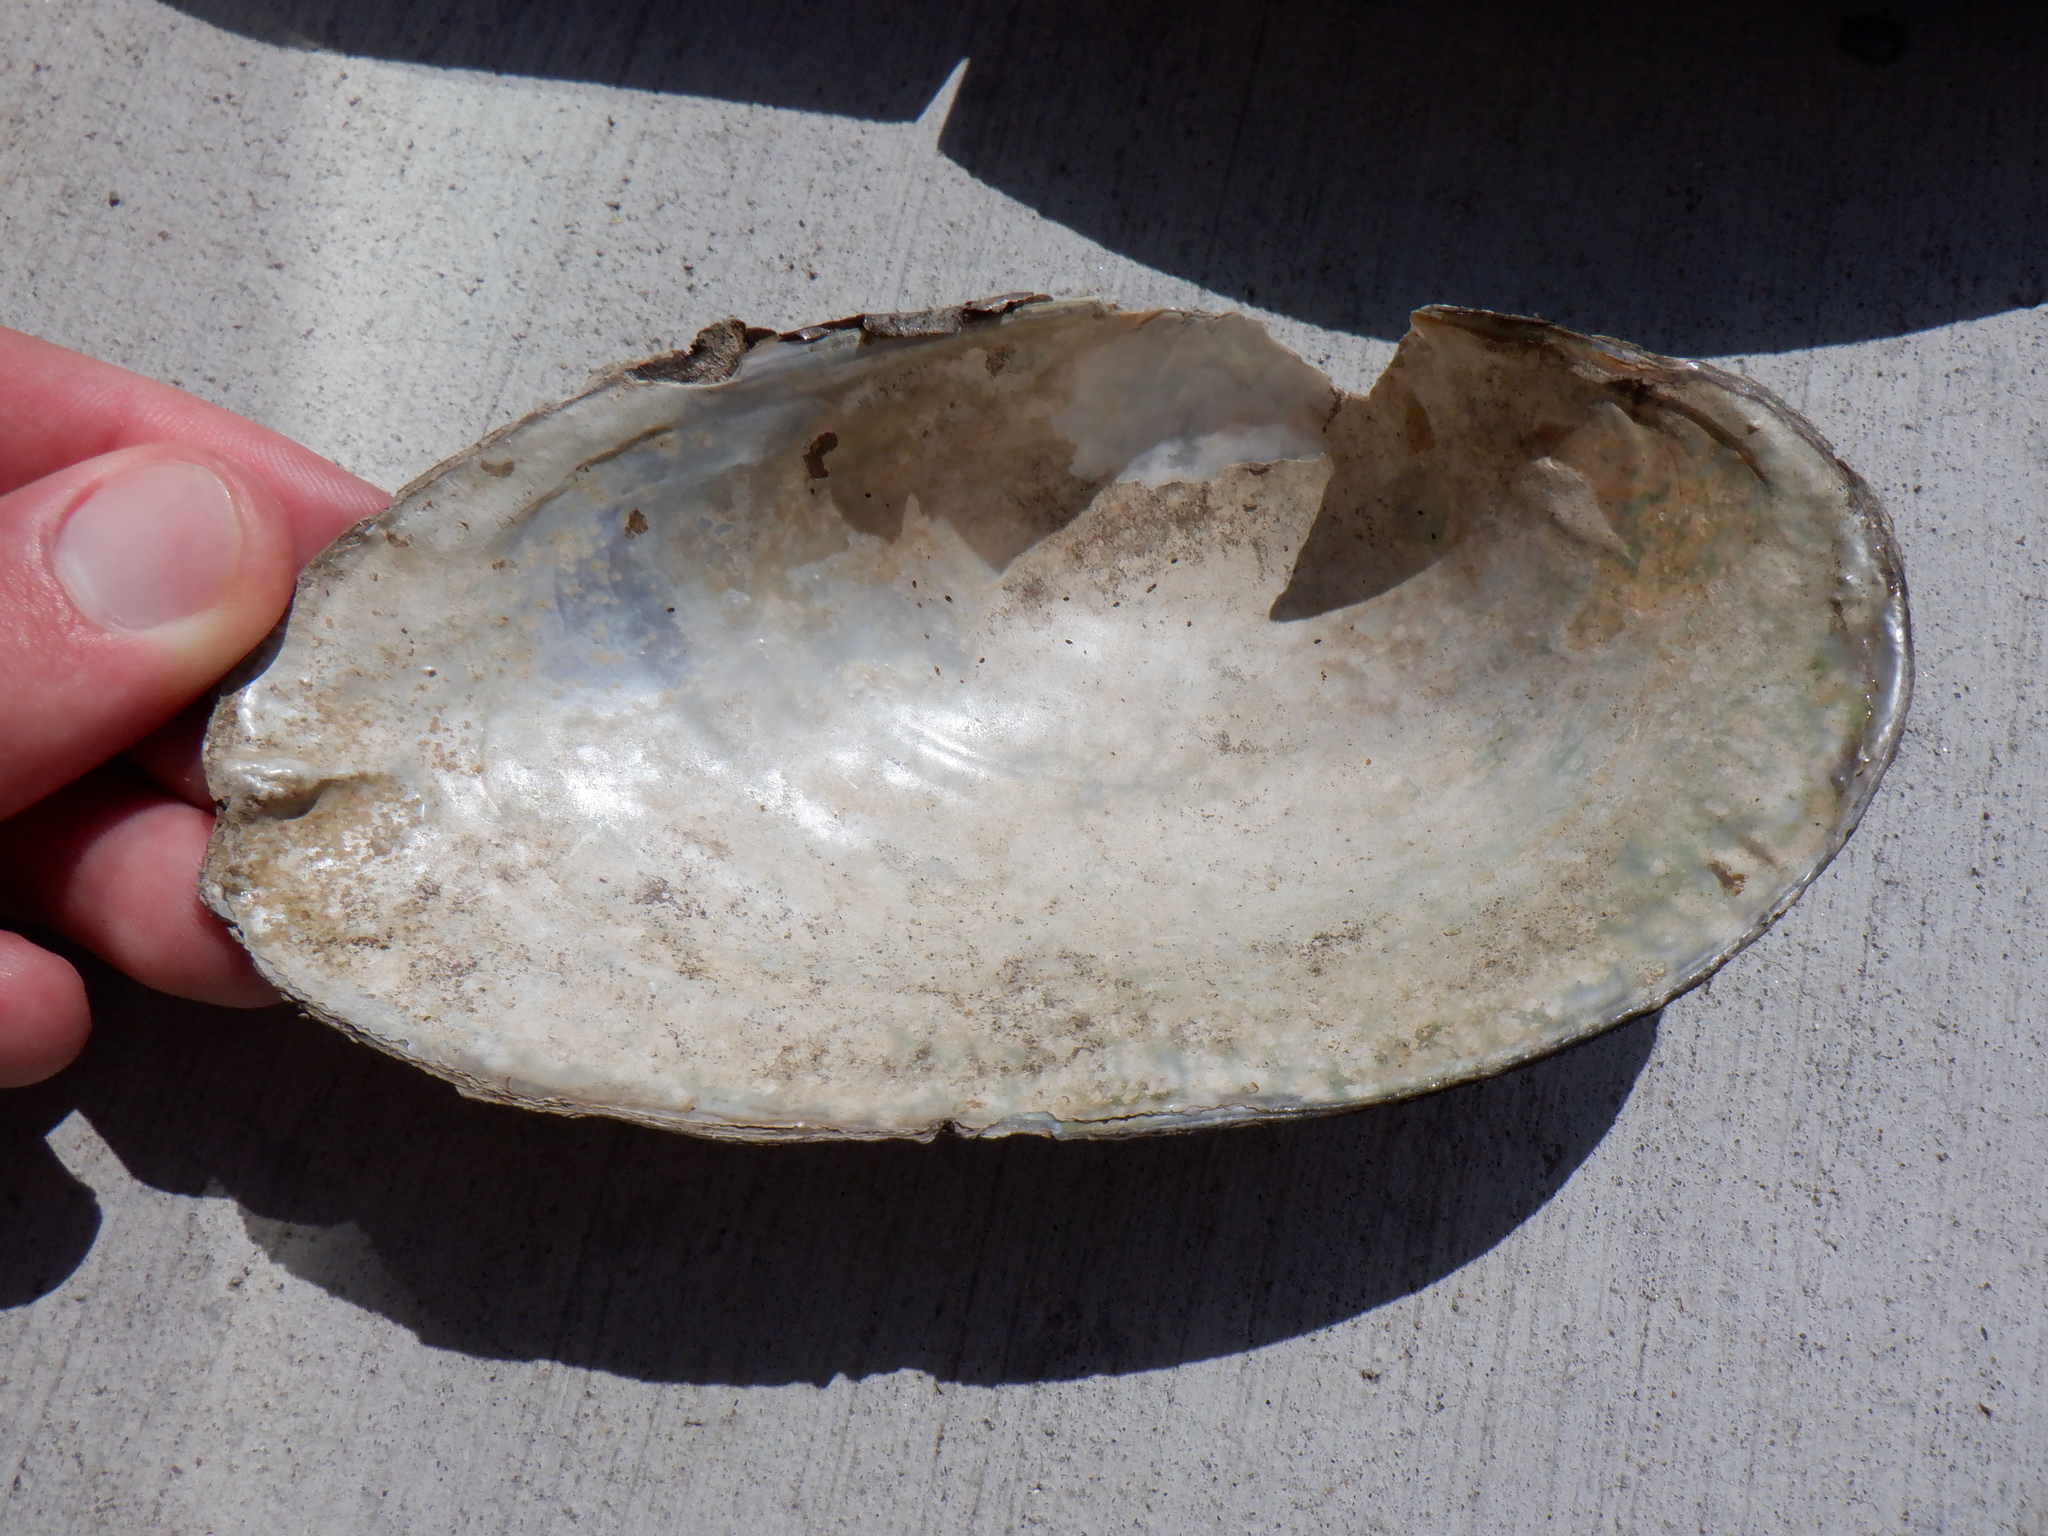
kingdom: Animalia
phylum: Mollusca
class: Bivalvia
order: Unionida
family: Unionidae
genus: Pyganodon
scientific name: Pyganodon grandis
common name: Giant floater
